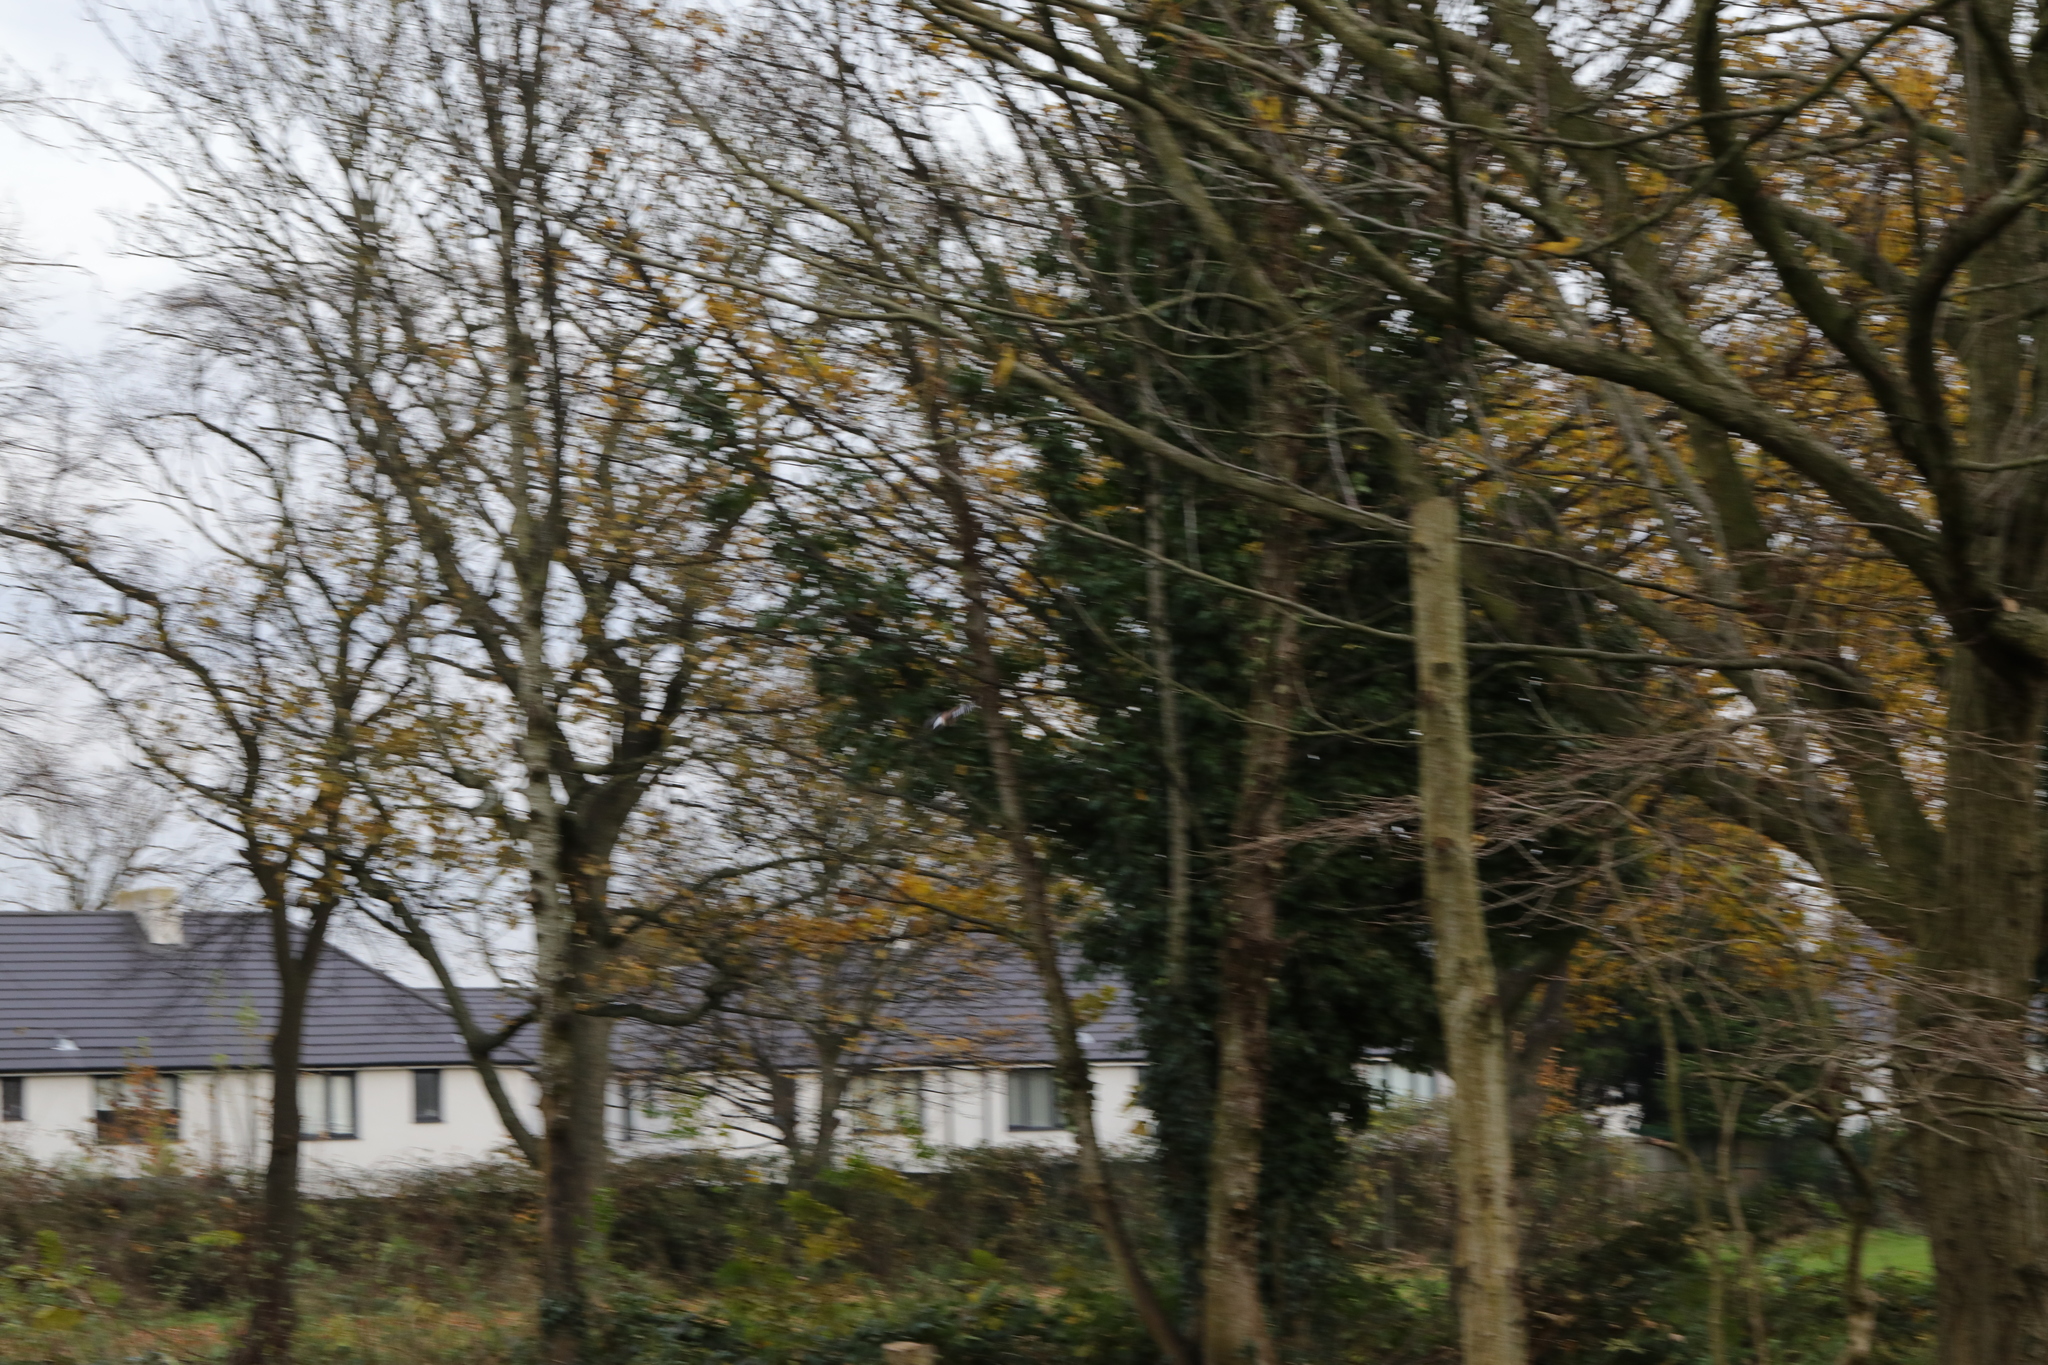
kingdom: Animalia
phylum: Chordata
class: Aves
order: Passeriformes
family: Corvidae
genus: Garrulus
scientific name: Garrulus glandarius
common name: Eurasian jay
